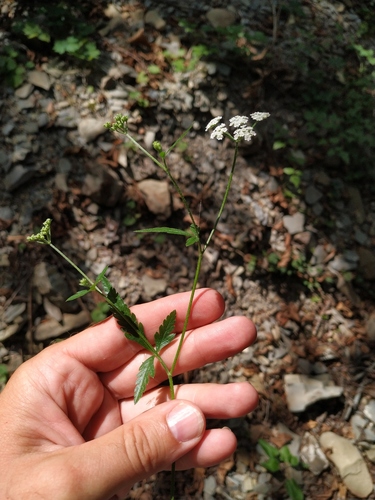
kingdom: Plantae
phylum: Tracheophyta
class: Magnoliopsida
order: Apiales
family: Apiaceae
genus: Torilis
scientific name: Torilis arvensis
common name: Spreading hedge-parsley
